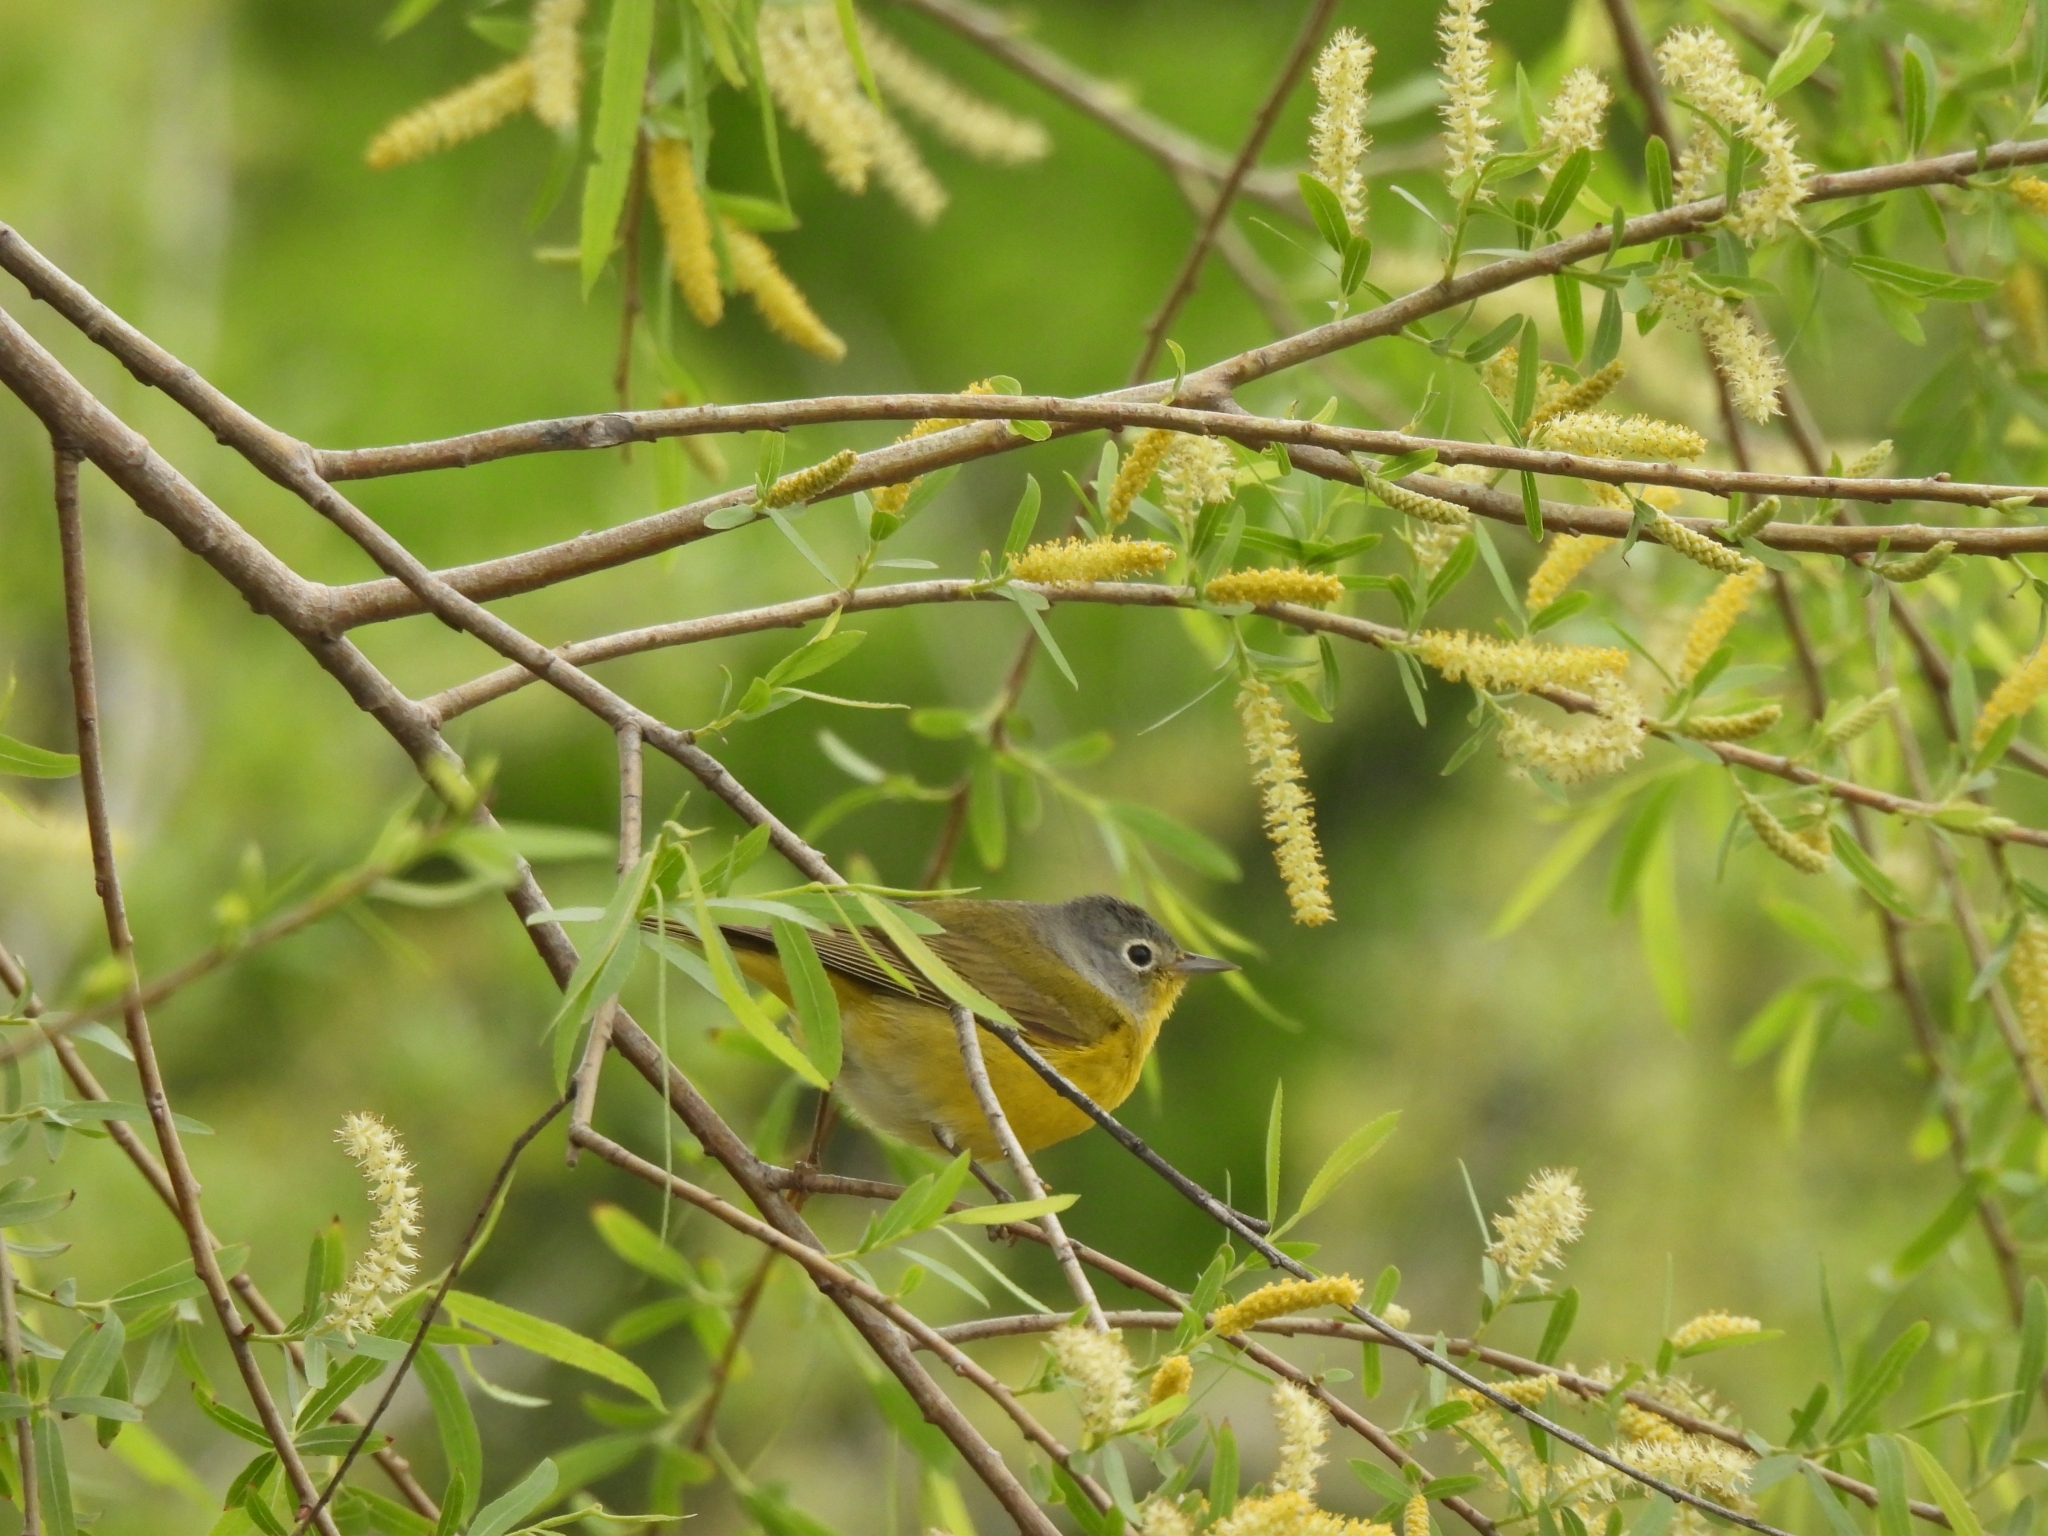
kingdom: Animalia
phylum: Chordata
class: Aves
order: Passeriformes
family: Parulidae
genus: Leiothlypis
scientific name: Leiothlypis ruficapilla
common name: Nashville warbler
